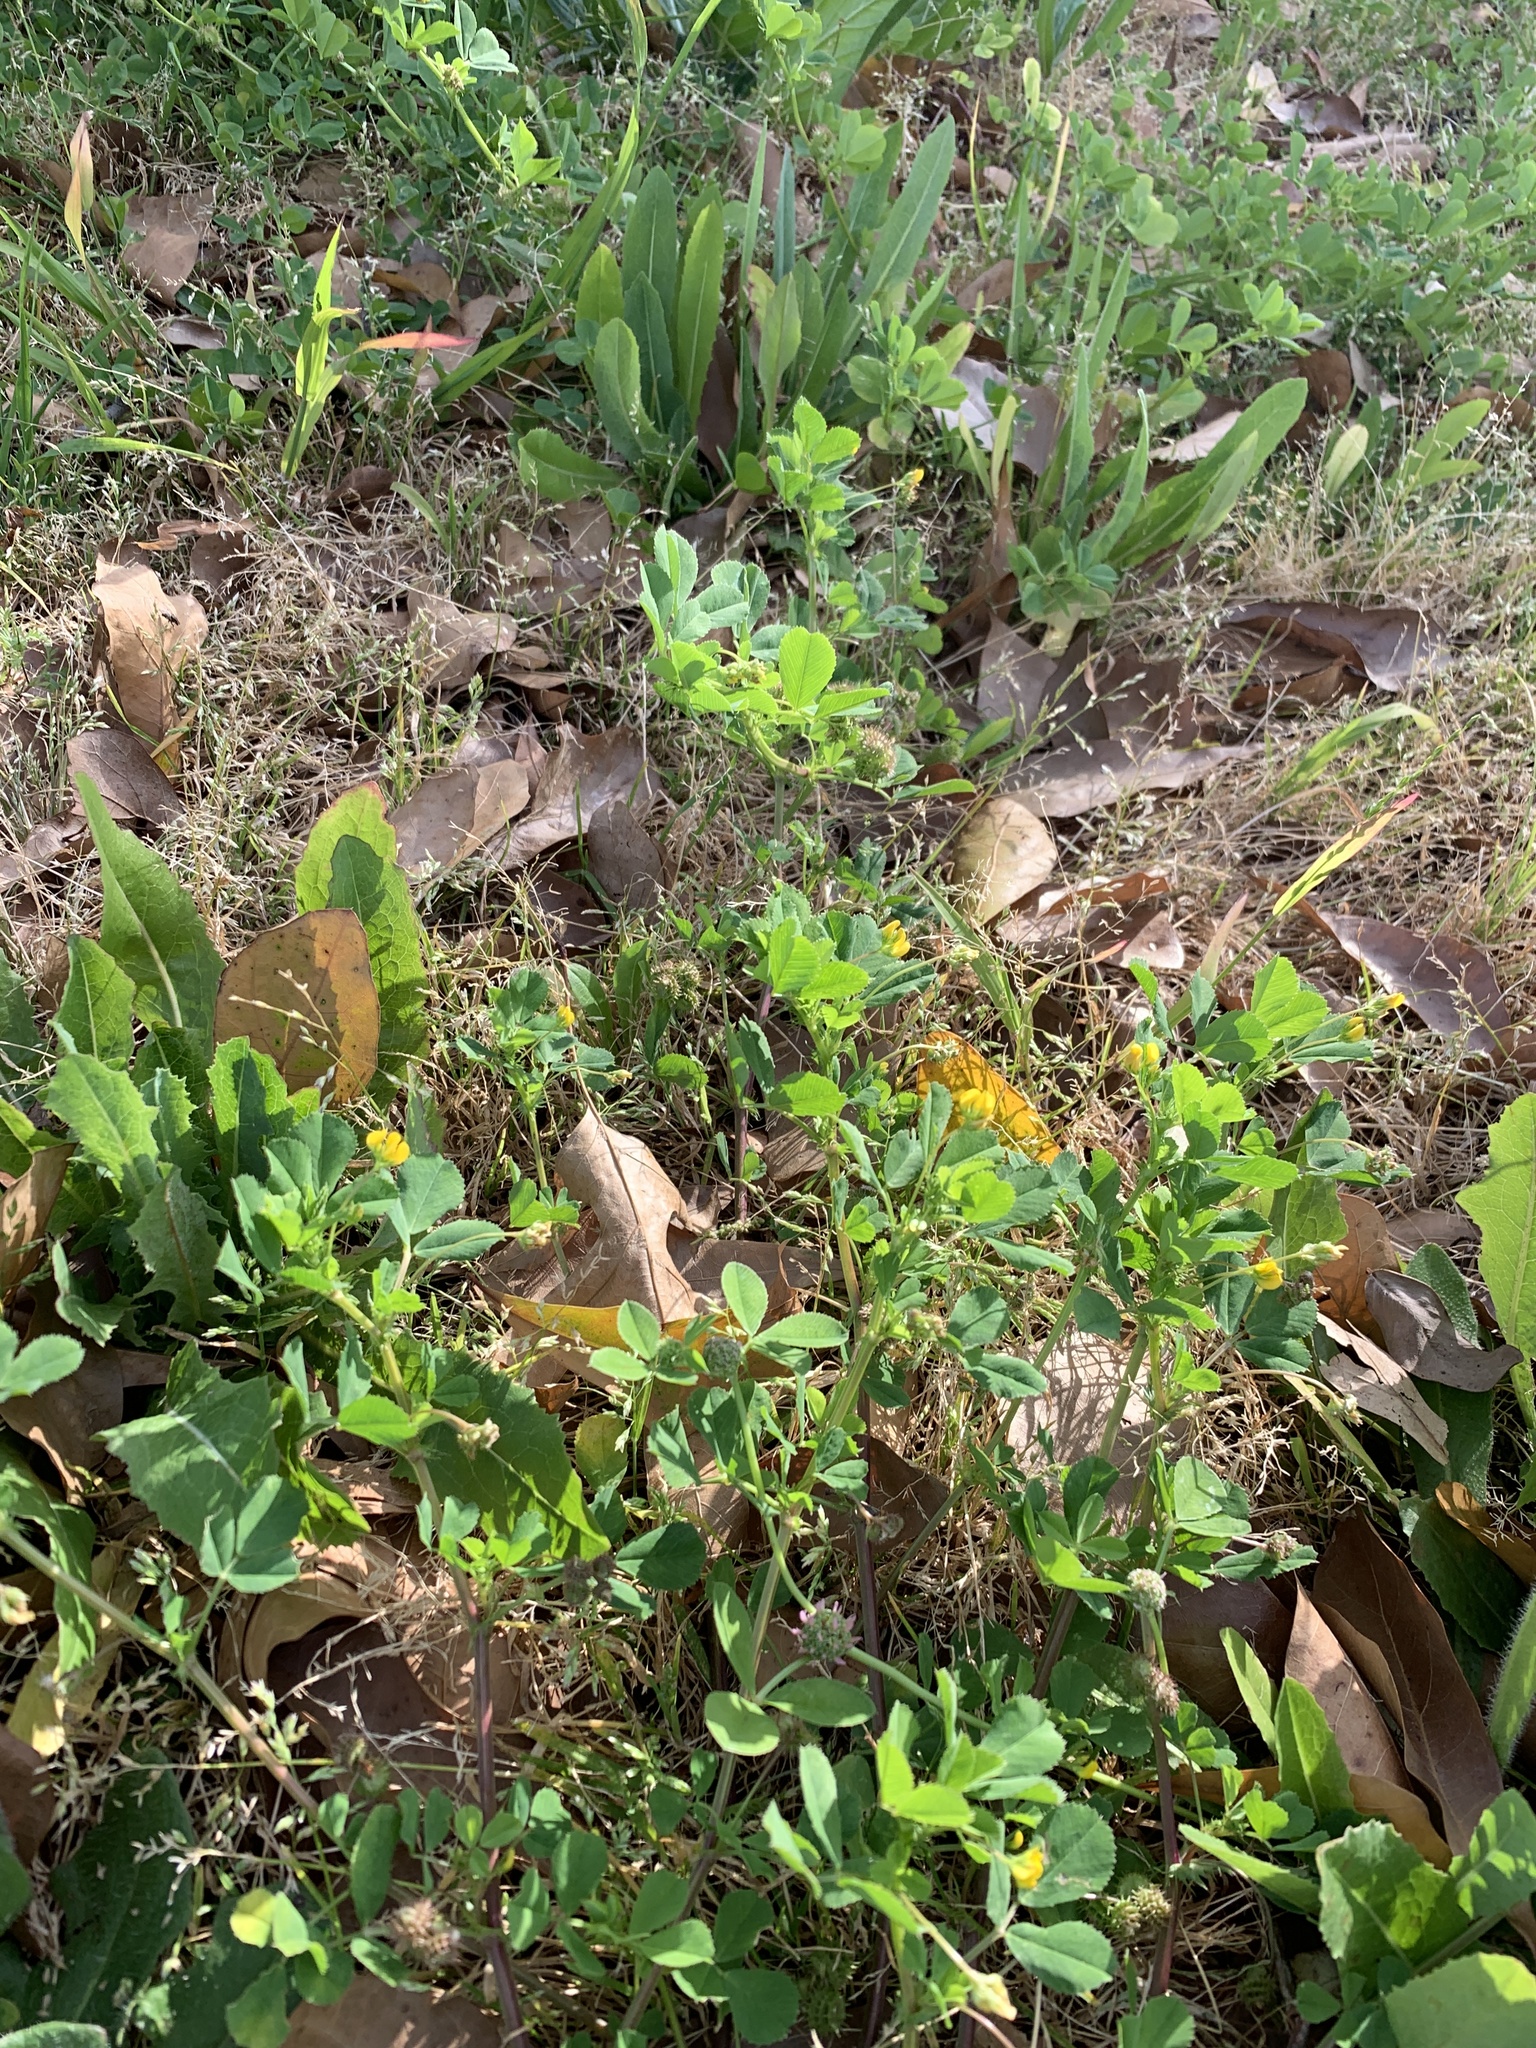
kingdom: Plantae
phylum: Tracheophyta
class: Magnoliopsida
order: Fabales
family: Fabaceae
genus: Medicago
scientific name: Medicago polymorpha
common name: Burclover
